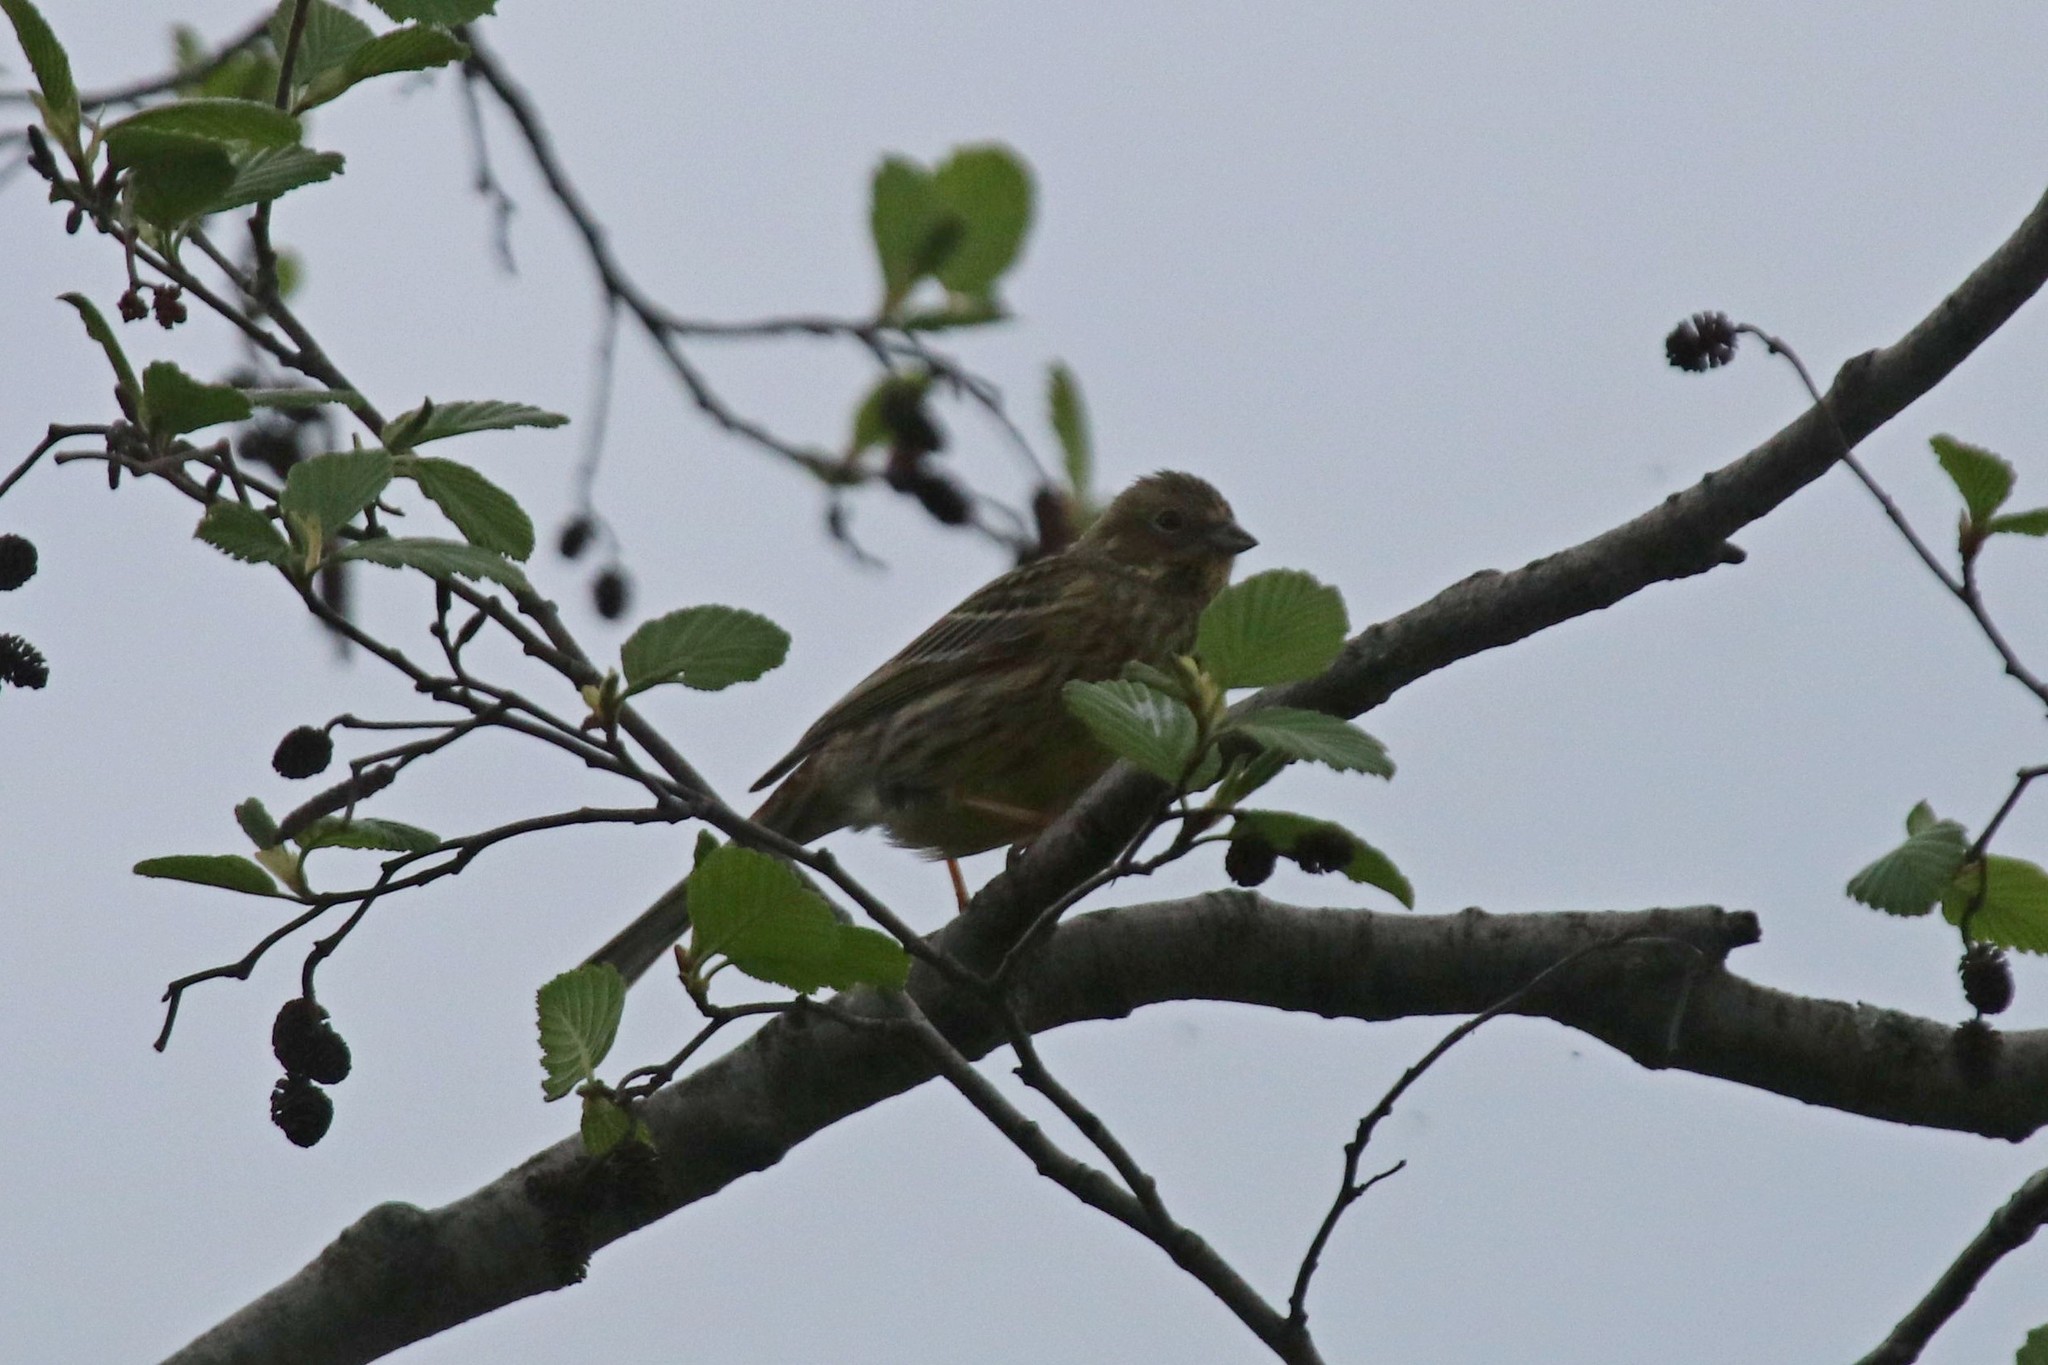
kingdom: Animalia
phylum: Chordata
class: Aves
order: Passeriformes
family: Emberizidae
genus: Emberiza
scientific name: Emberiza citrinella
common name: Yellowhammer
